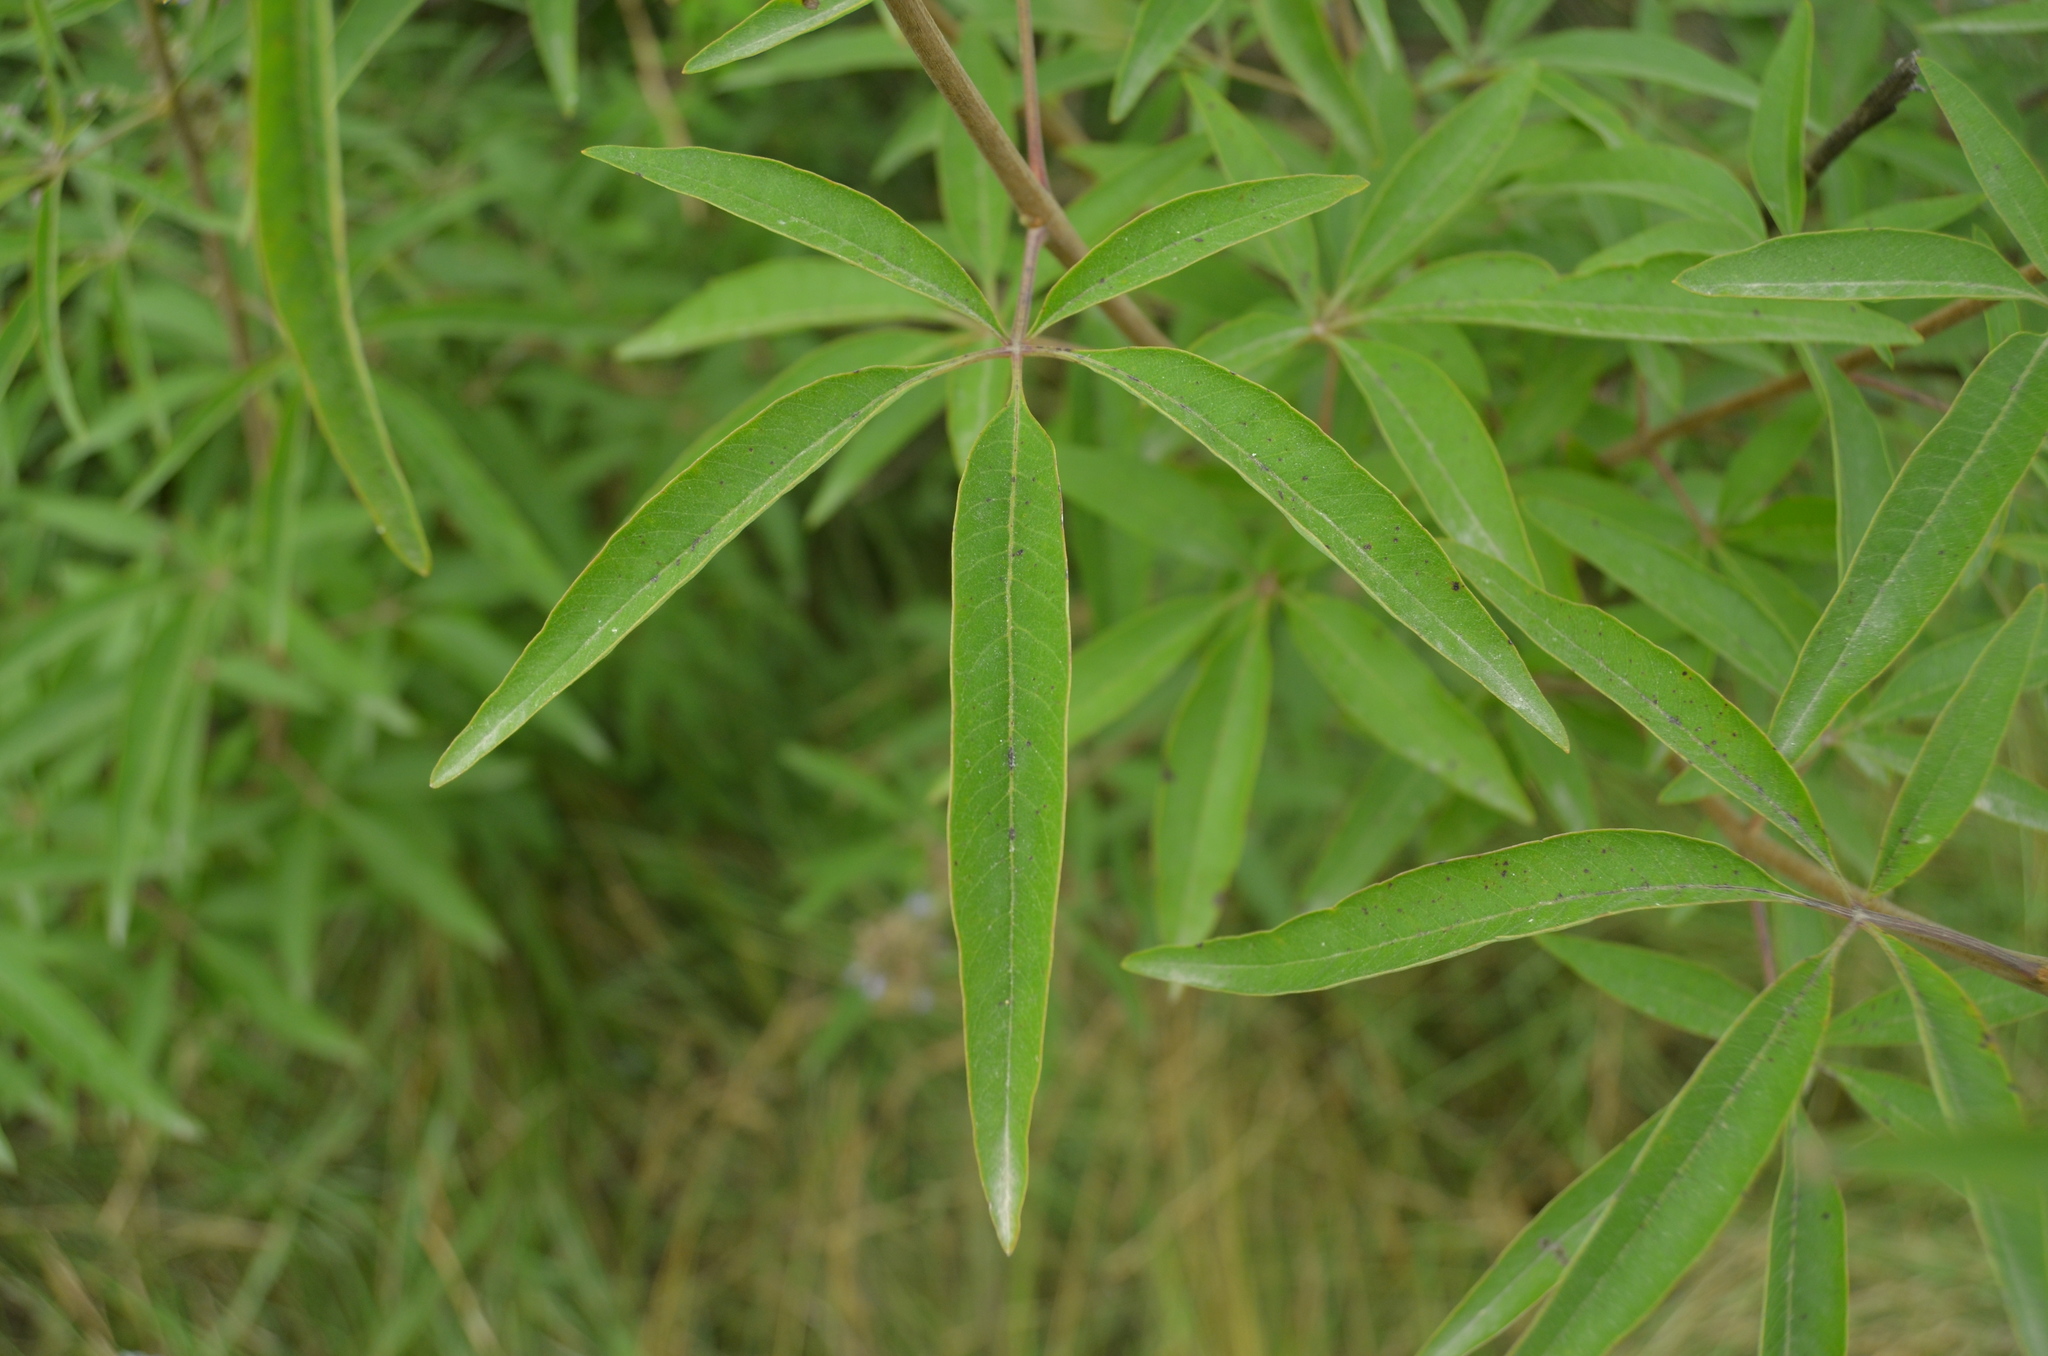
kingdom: Plantae
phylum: Tracheophyta
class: Magnoliopsida
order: Lamiales
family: Lamiaceae
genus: Vitex
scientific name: Vitex agnus-castus
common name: Chasteberry
